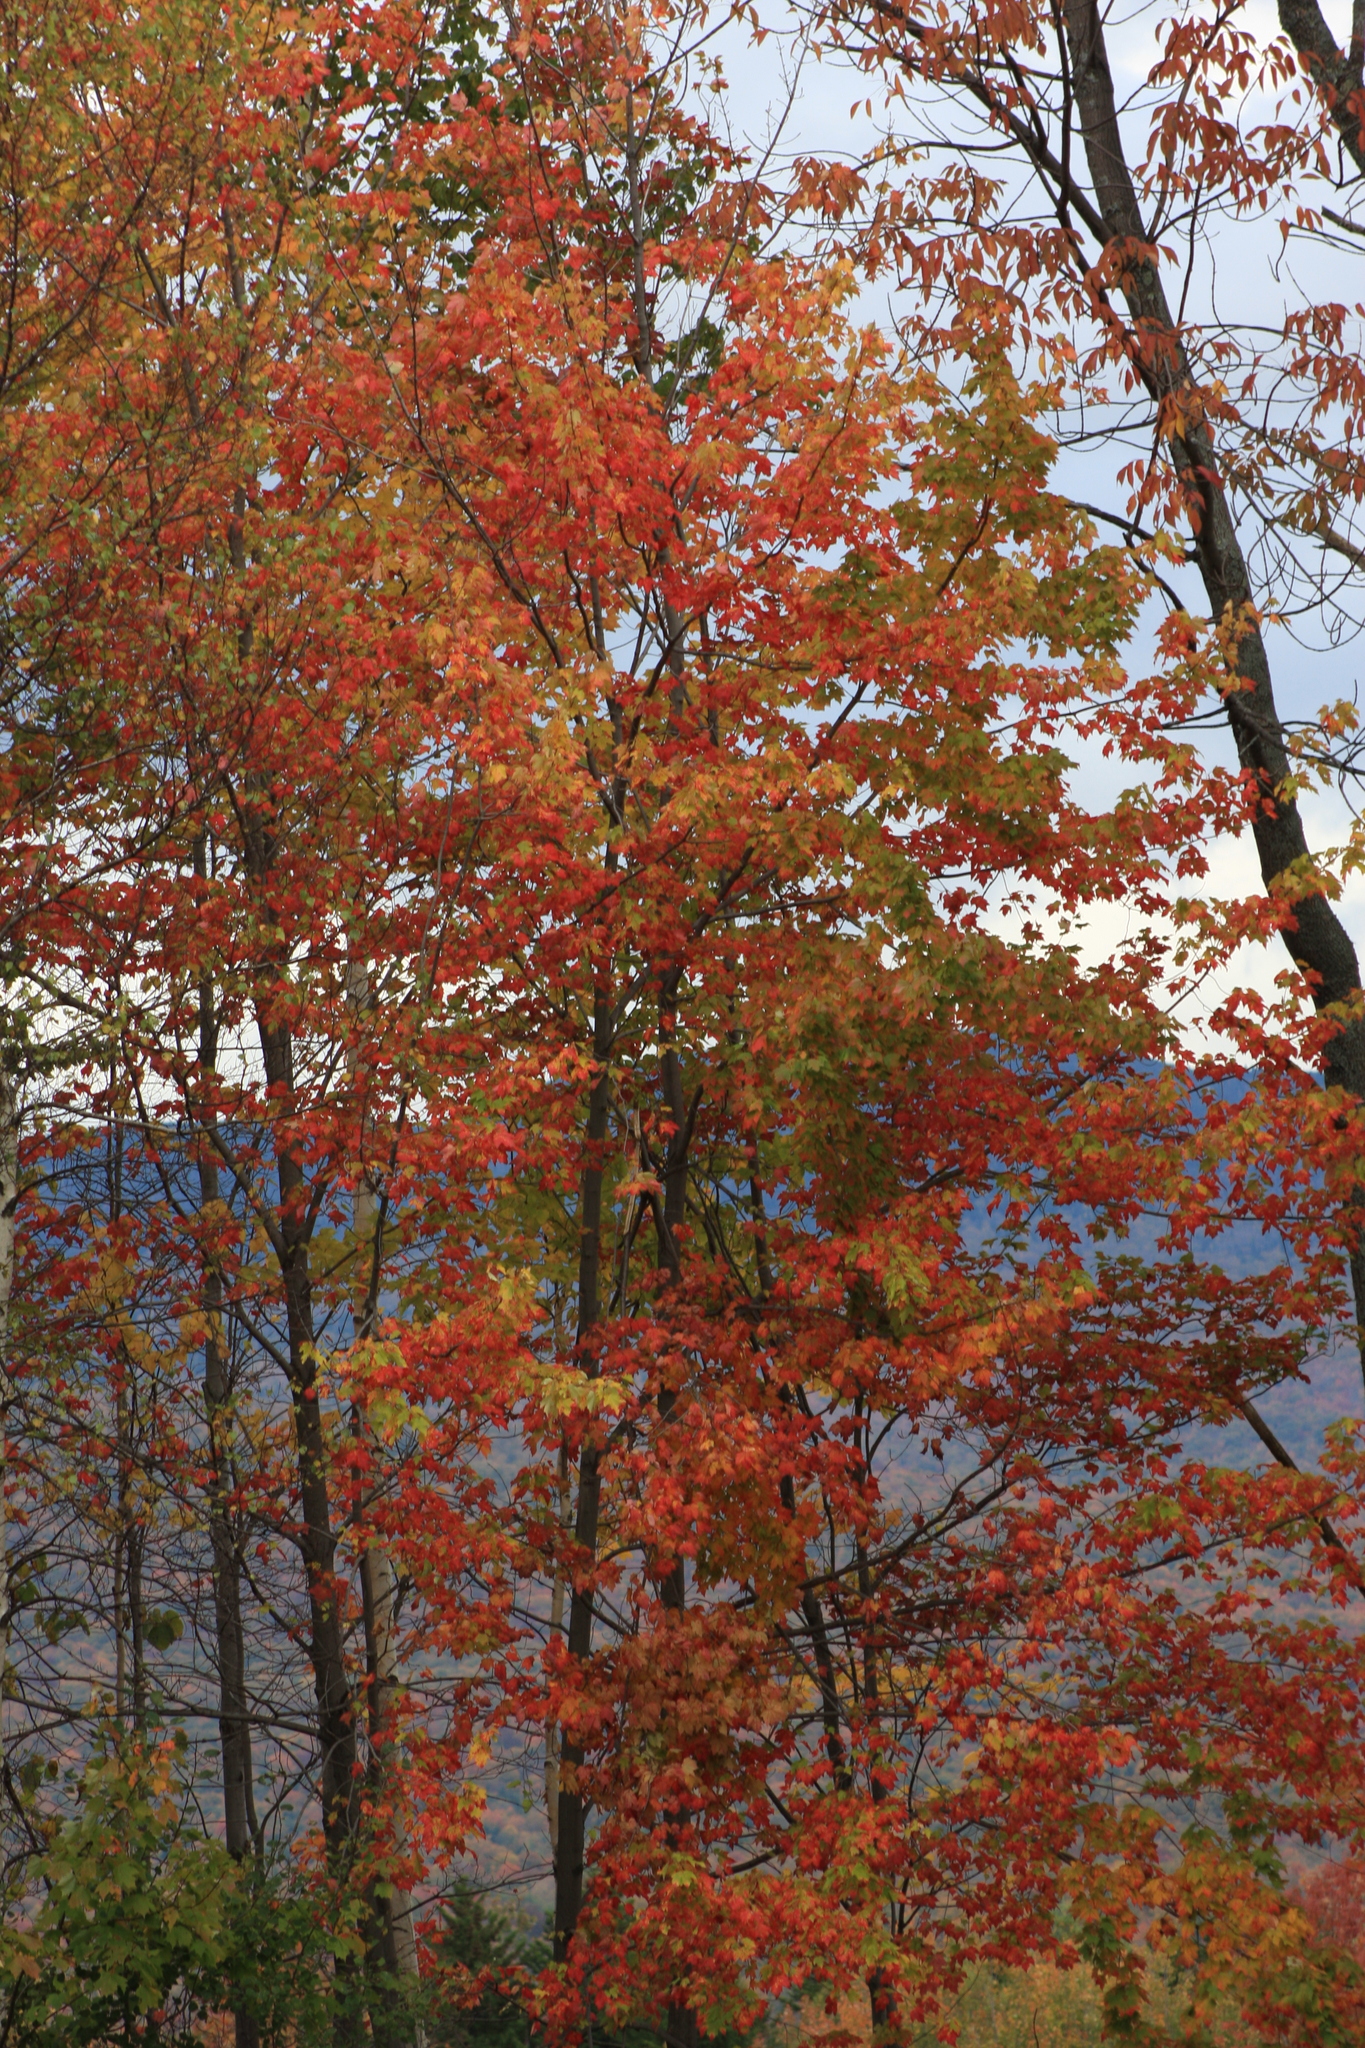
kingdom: Plantae
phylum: Tracheophyta
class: Magnoliopsida
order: Sapindales
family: Sapindaceae
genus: Acer
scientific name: Acer rubrum
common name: Red maple
